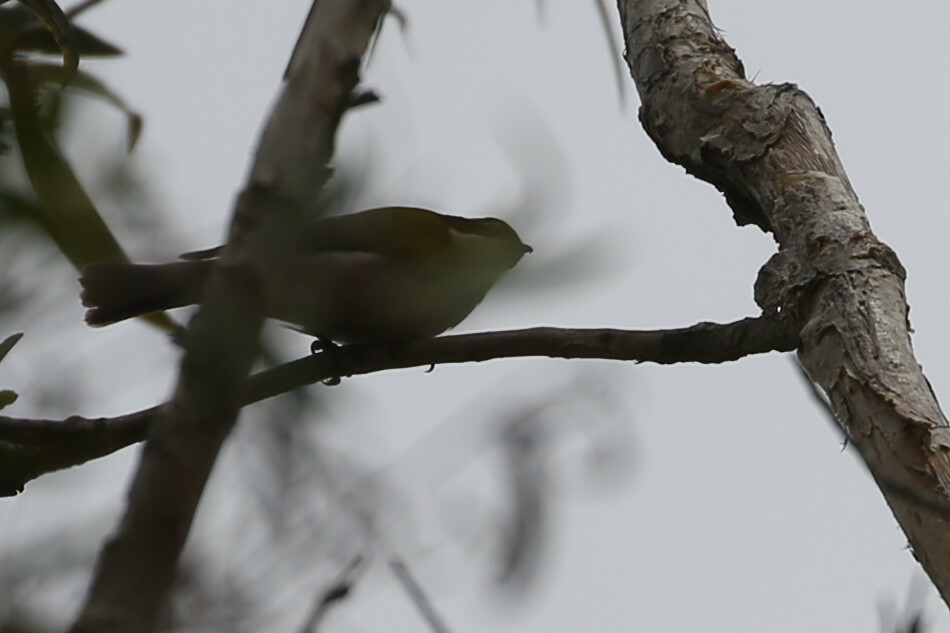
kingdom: Animalia
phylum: Chordata
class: Aves
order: Passeriformes
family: Meliphagidae
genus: Melithreptus
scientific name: Melithreptus albogularis
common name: White-throated honeyeater
